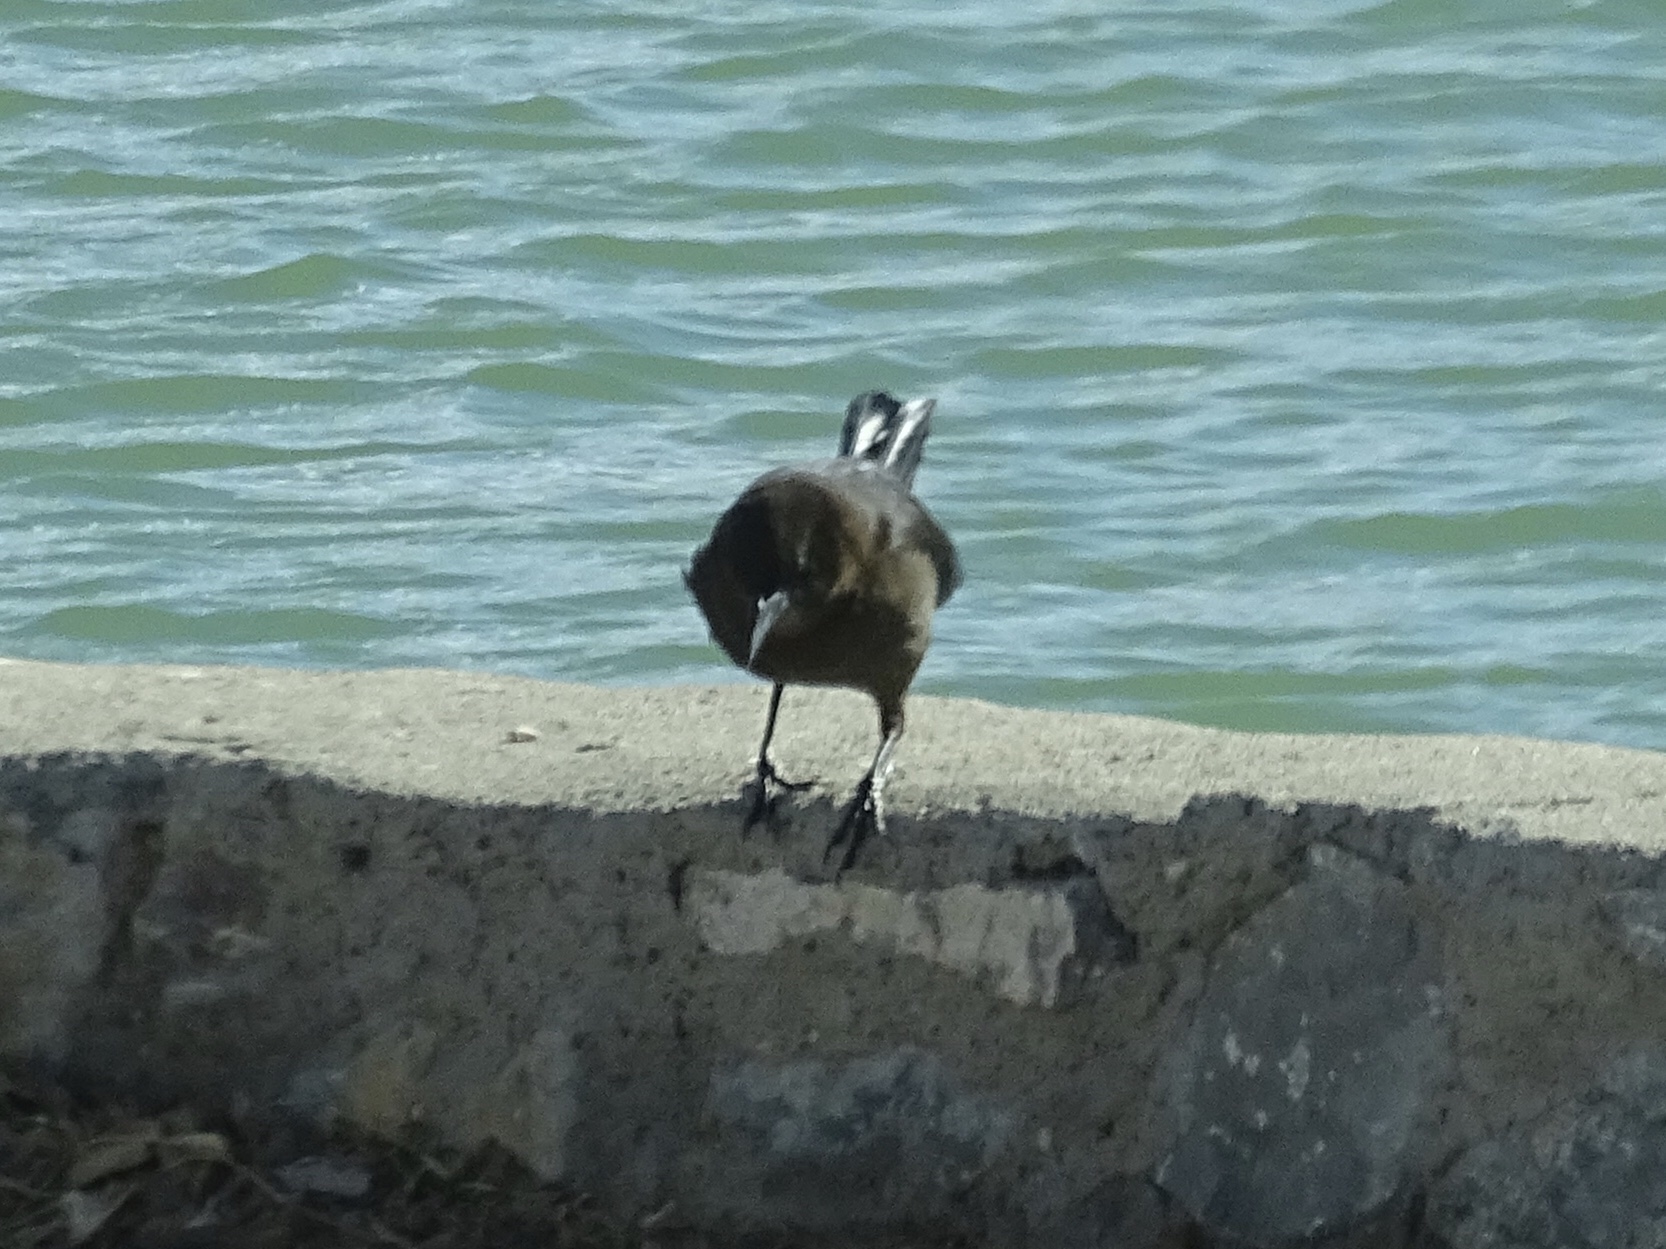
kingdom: Animalia
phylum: Chordata
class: Aves
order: Passeriformes
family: Icteridae
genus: Quiscalus
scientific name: Quiscalus mexicanus
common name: Great-tailed grackle
